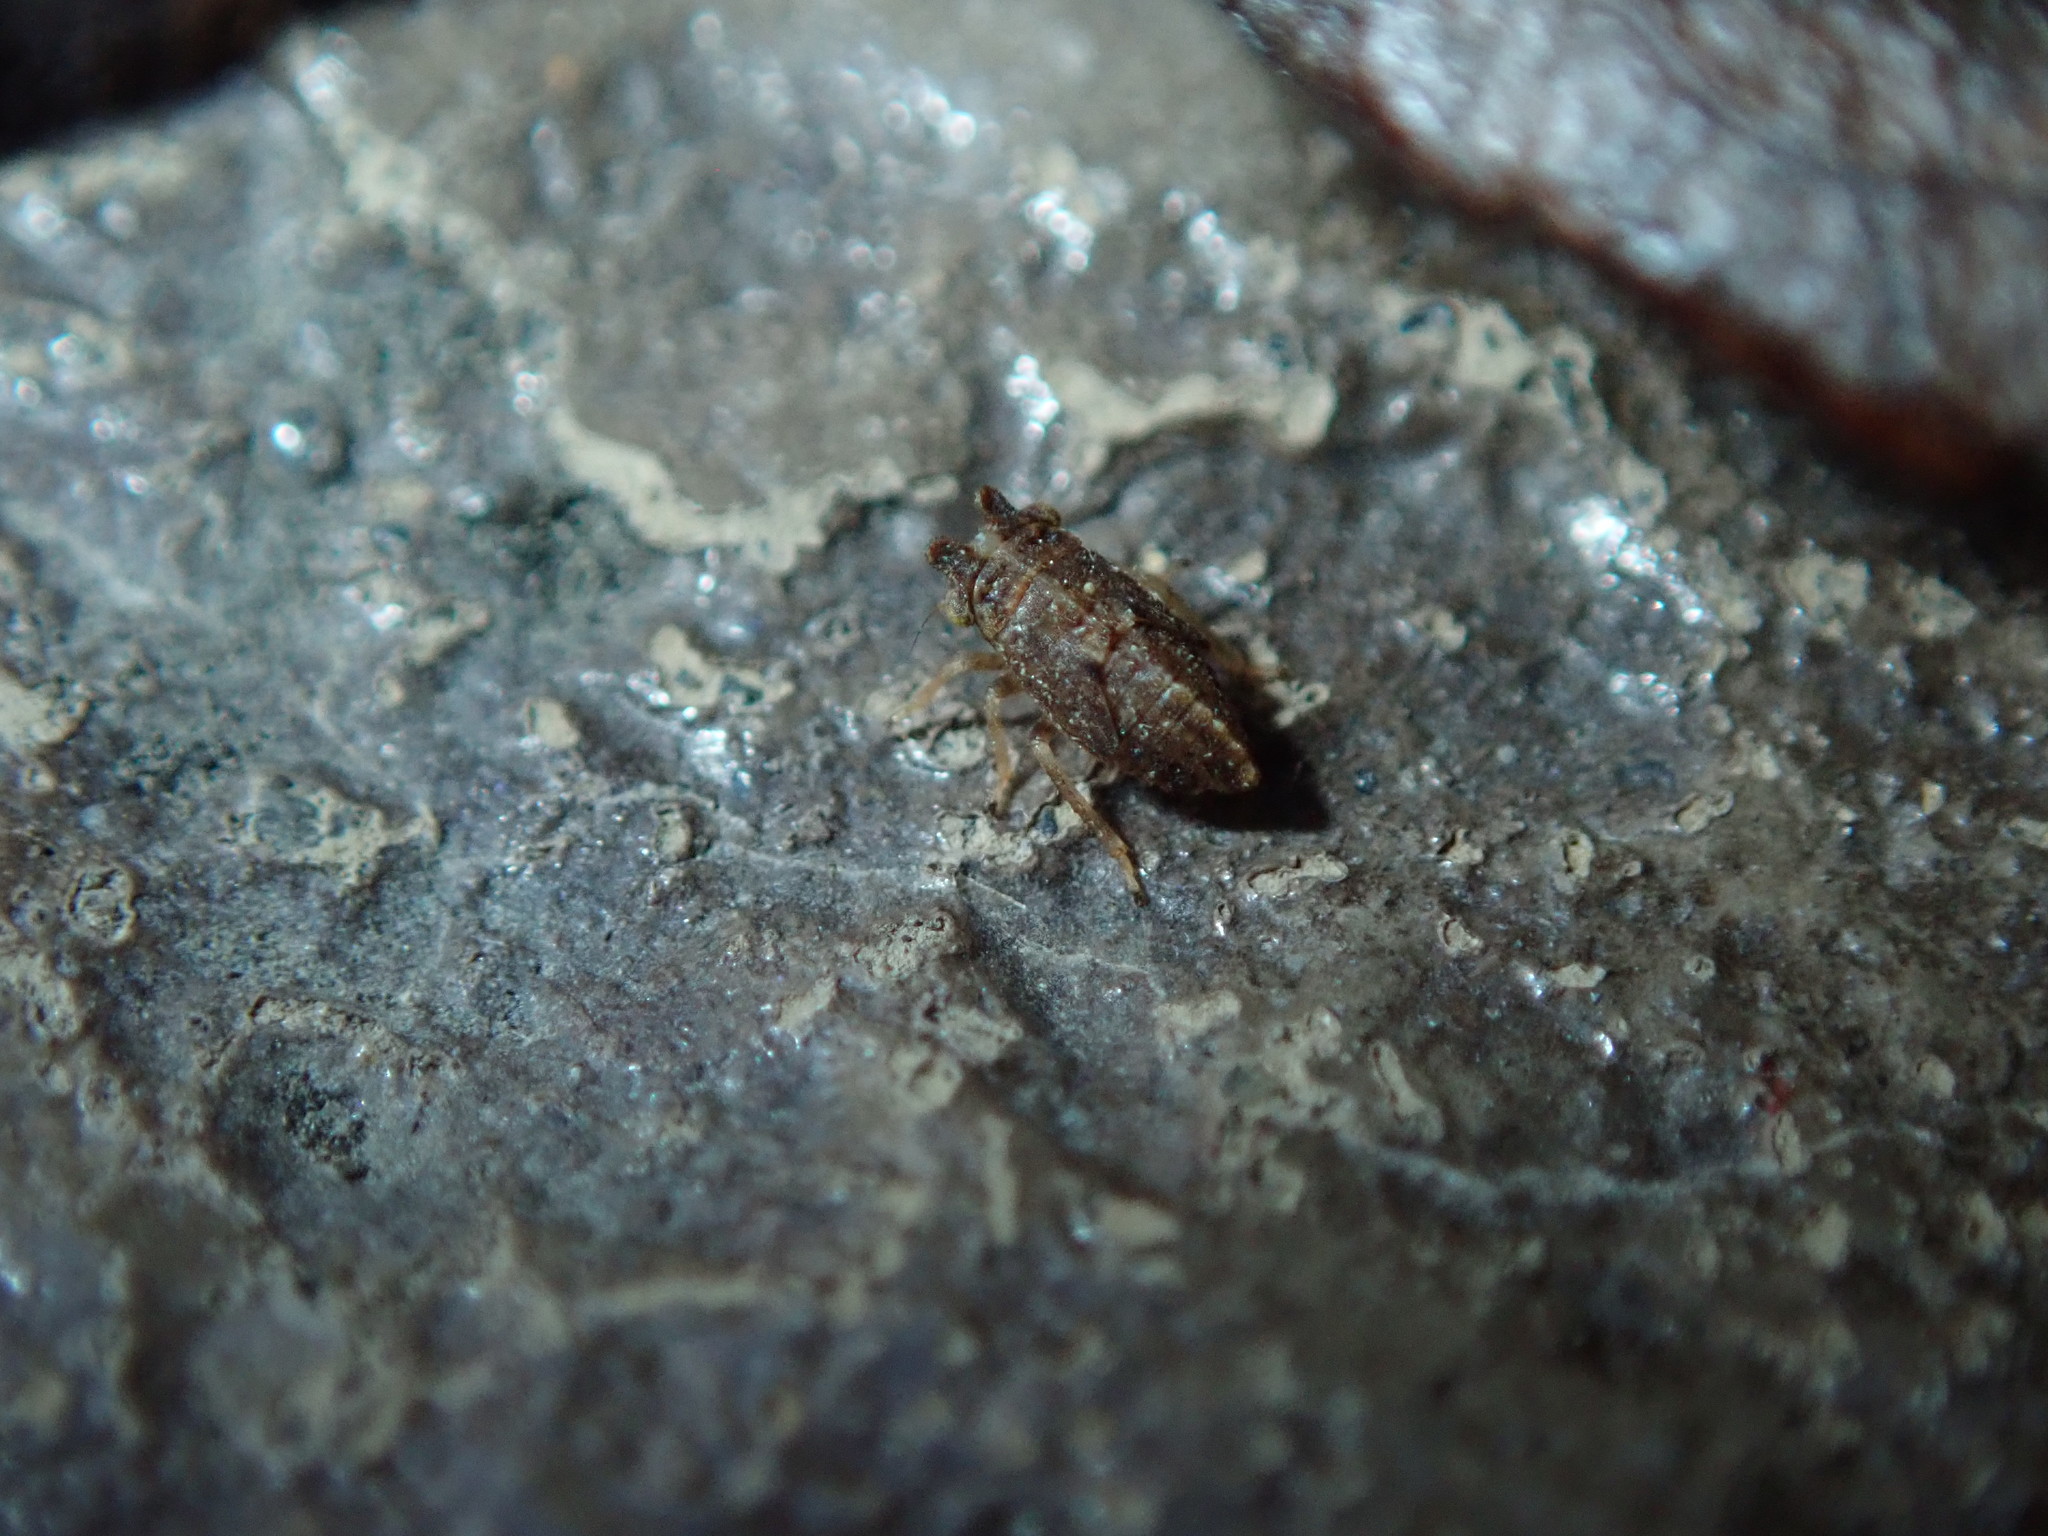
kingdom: Animalia
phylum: Arthropoda
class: Insecta
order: Hemiptera
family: Cicadellidae
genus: Agallia
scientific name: Agallia
